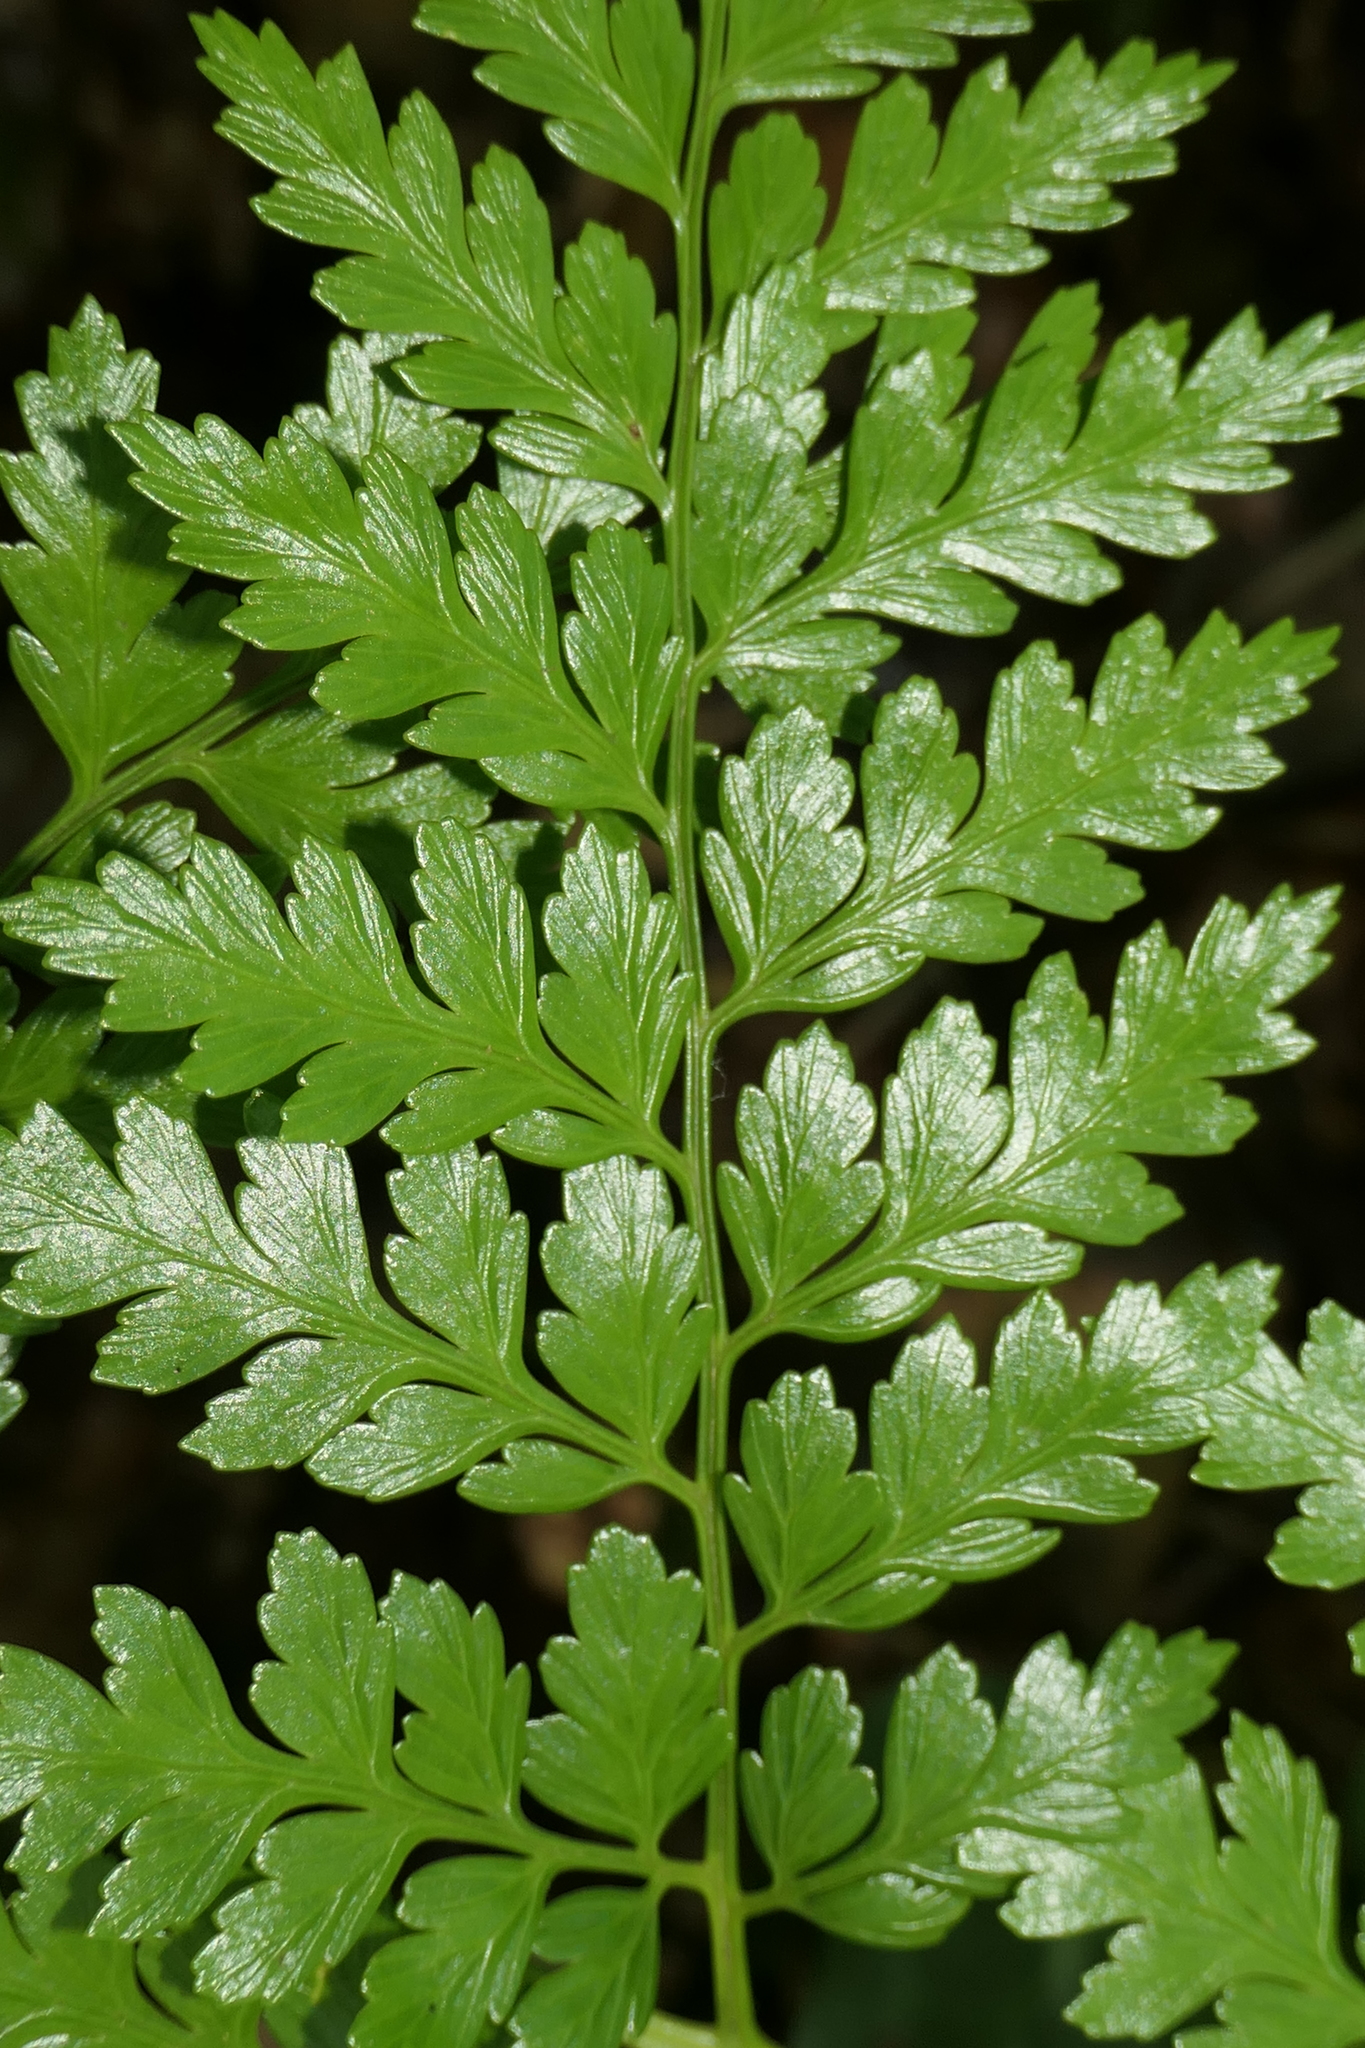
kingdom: Plantae
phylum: Tracheophyta
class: Polypodiopsida
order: Cyatheales
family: Culcitaceae
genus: Culcita
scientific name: Culcita macrocarpa
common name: Woolly tree fern
